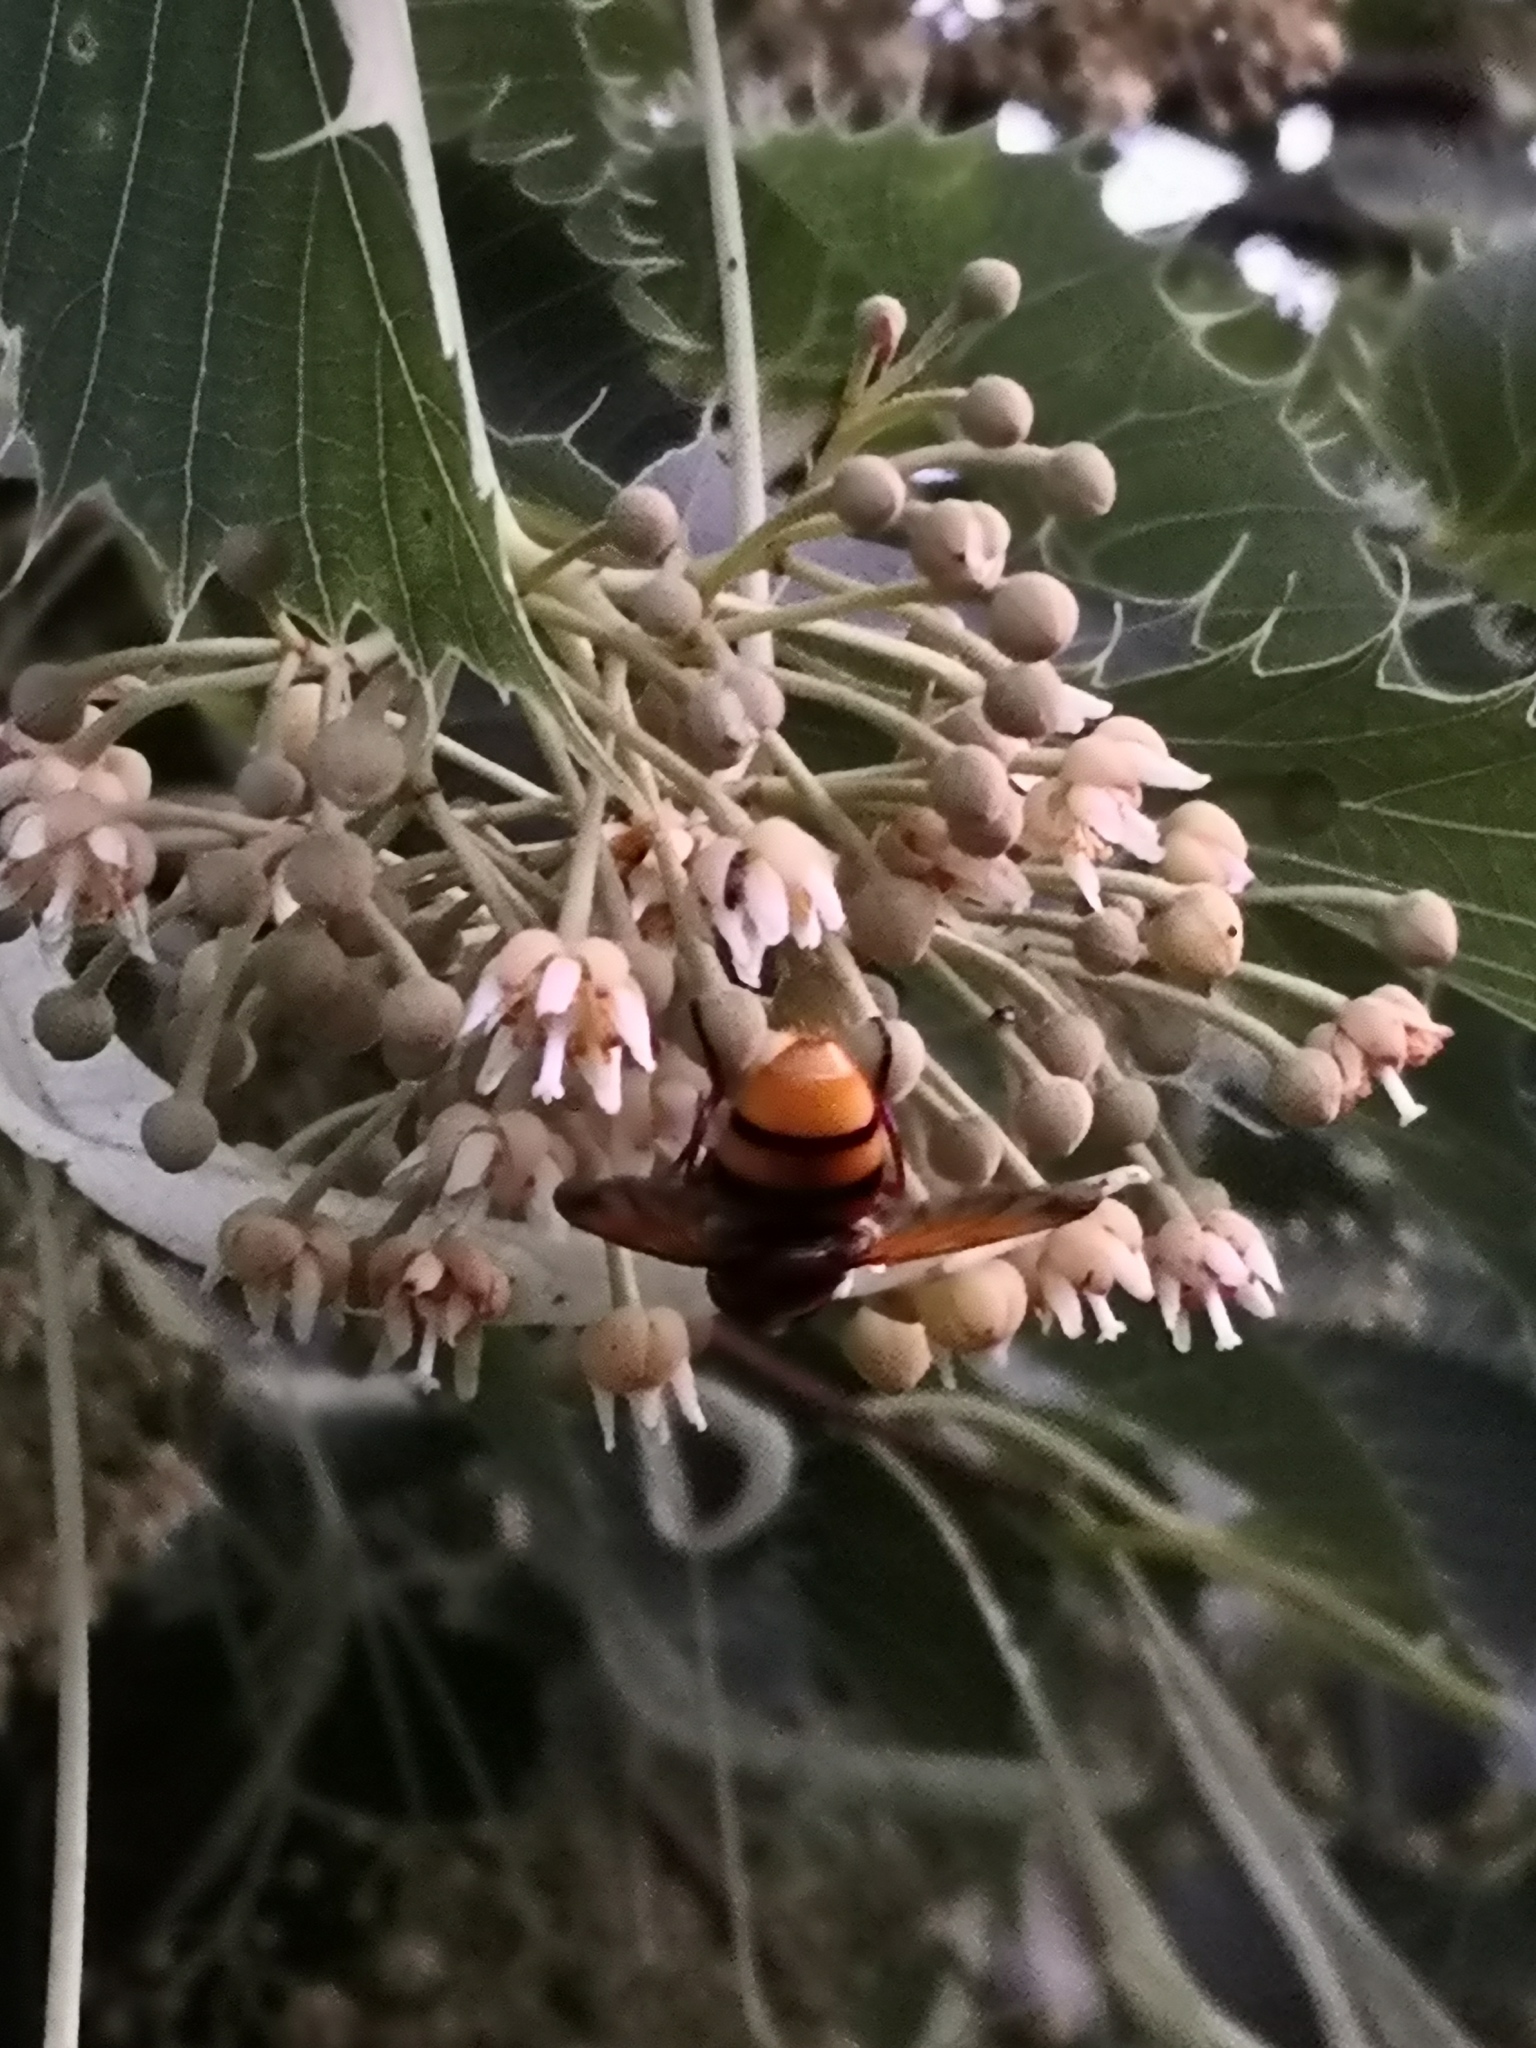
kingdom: Animalia
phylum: Arthropoda
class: Insecta
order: Diptera
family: Syrphidae
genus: Volucella
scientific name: Volucella zonaria
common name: Hornet hoverfly
